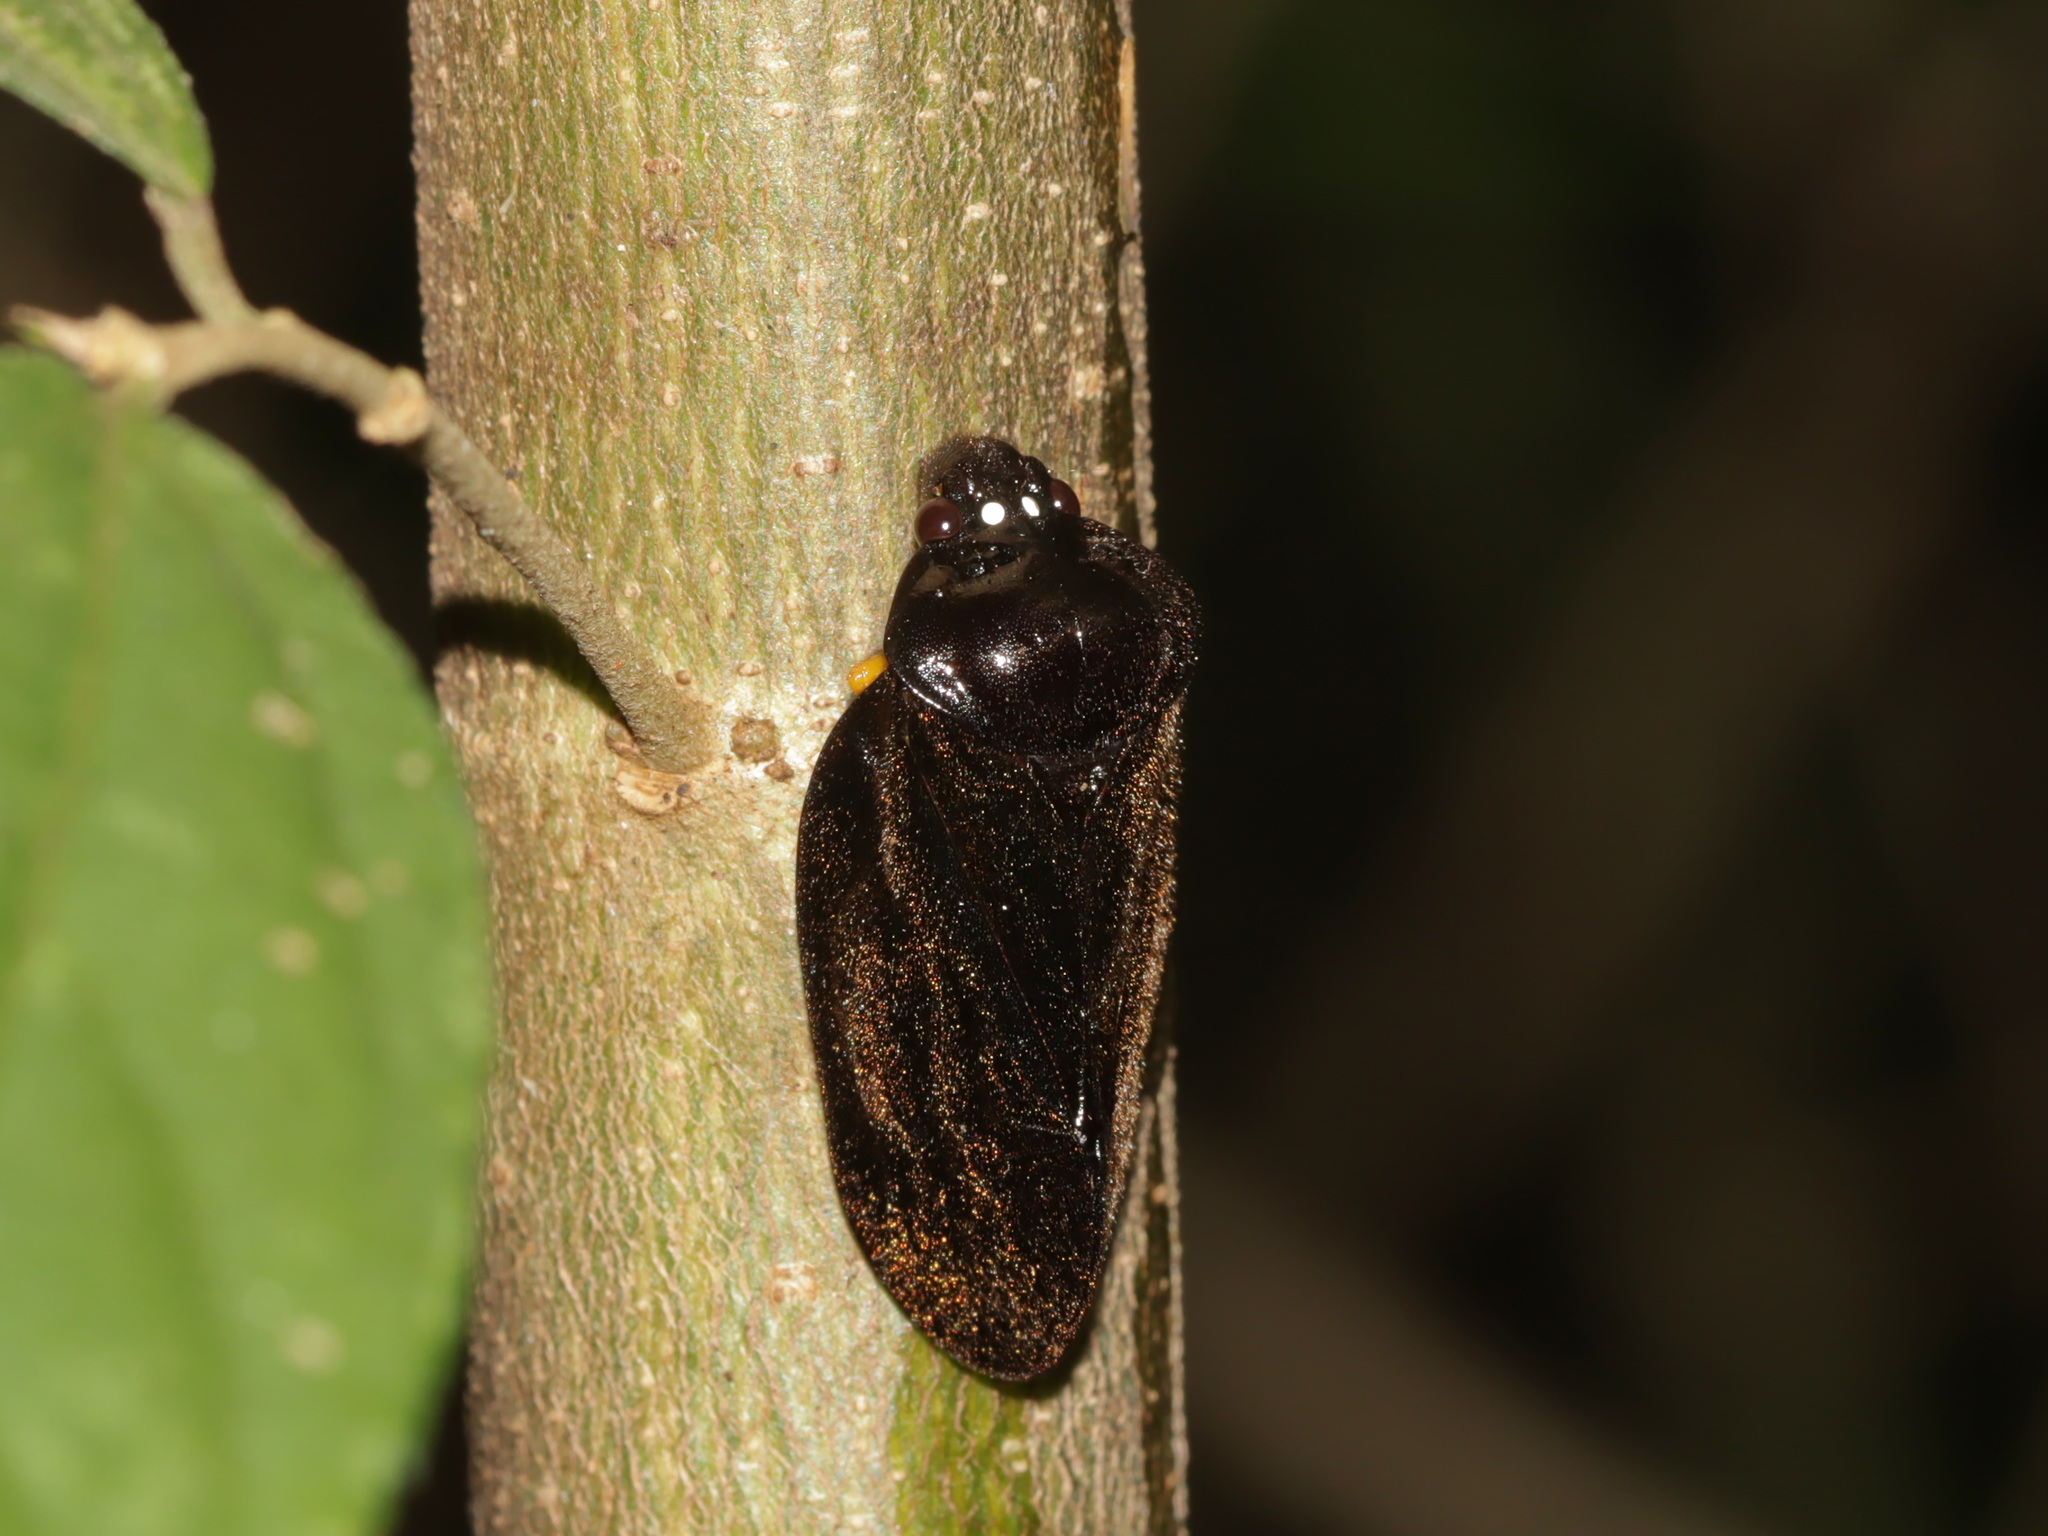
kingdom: Animalia
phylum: Arthropoda
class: Insecta
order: Hemiptera
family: Cercopidae
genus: Simeliria
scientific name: Simeliria viridans
